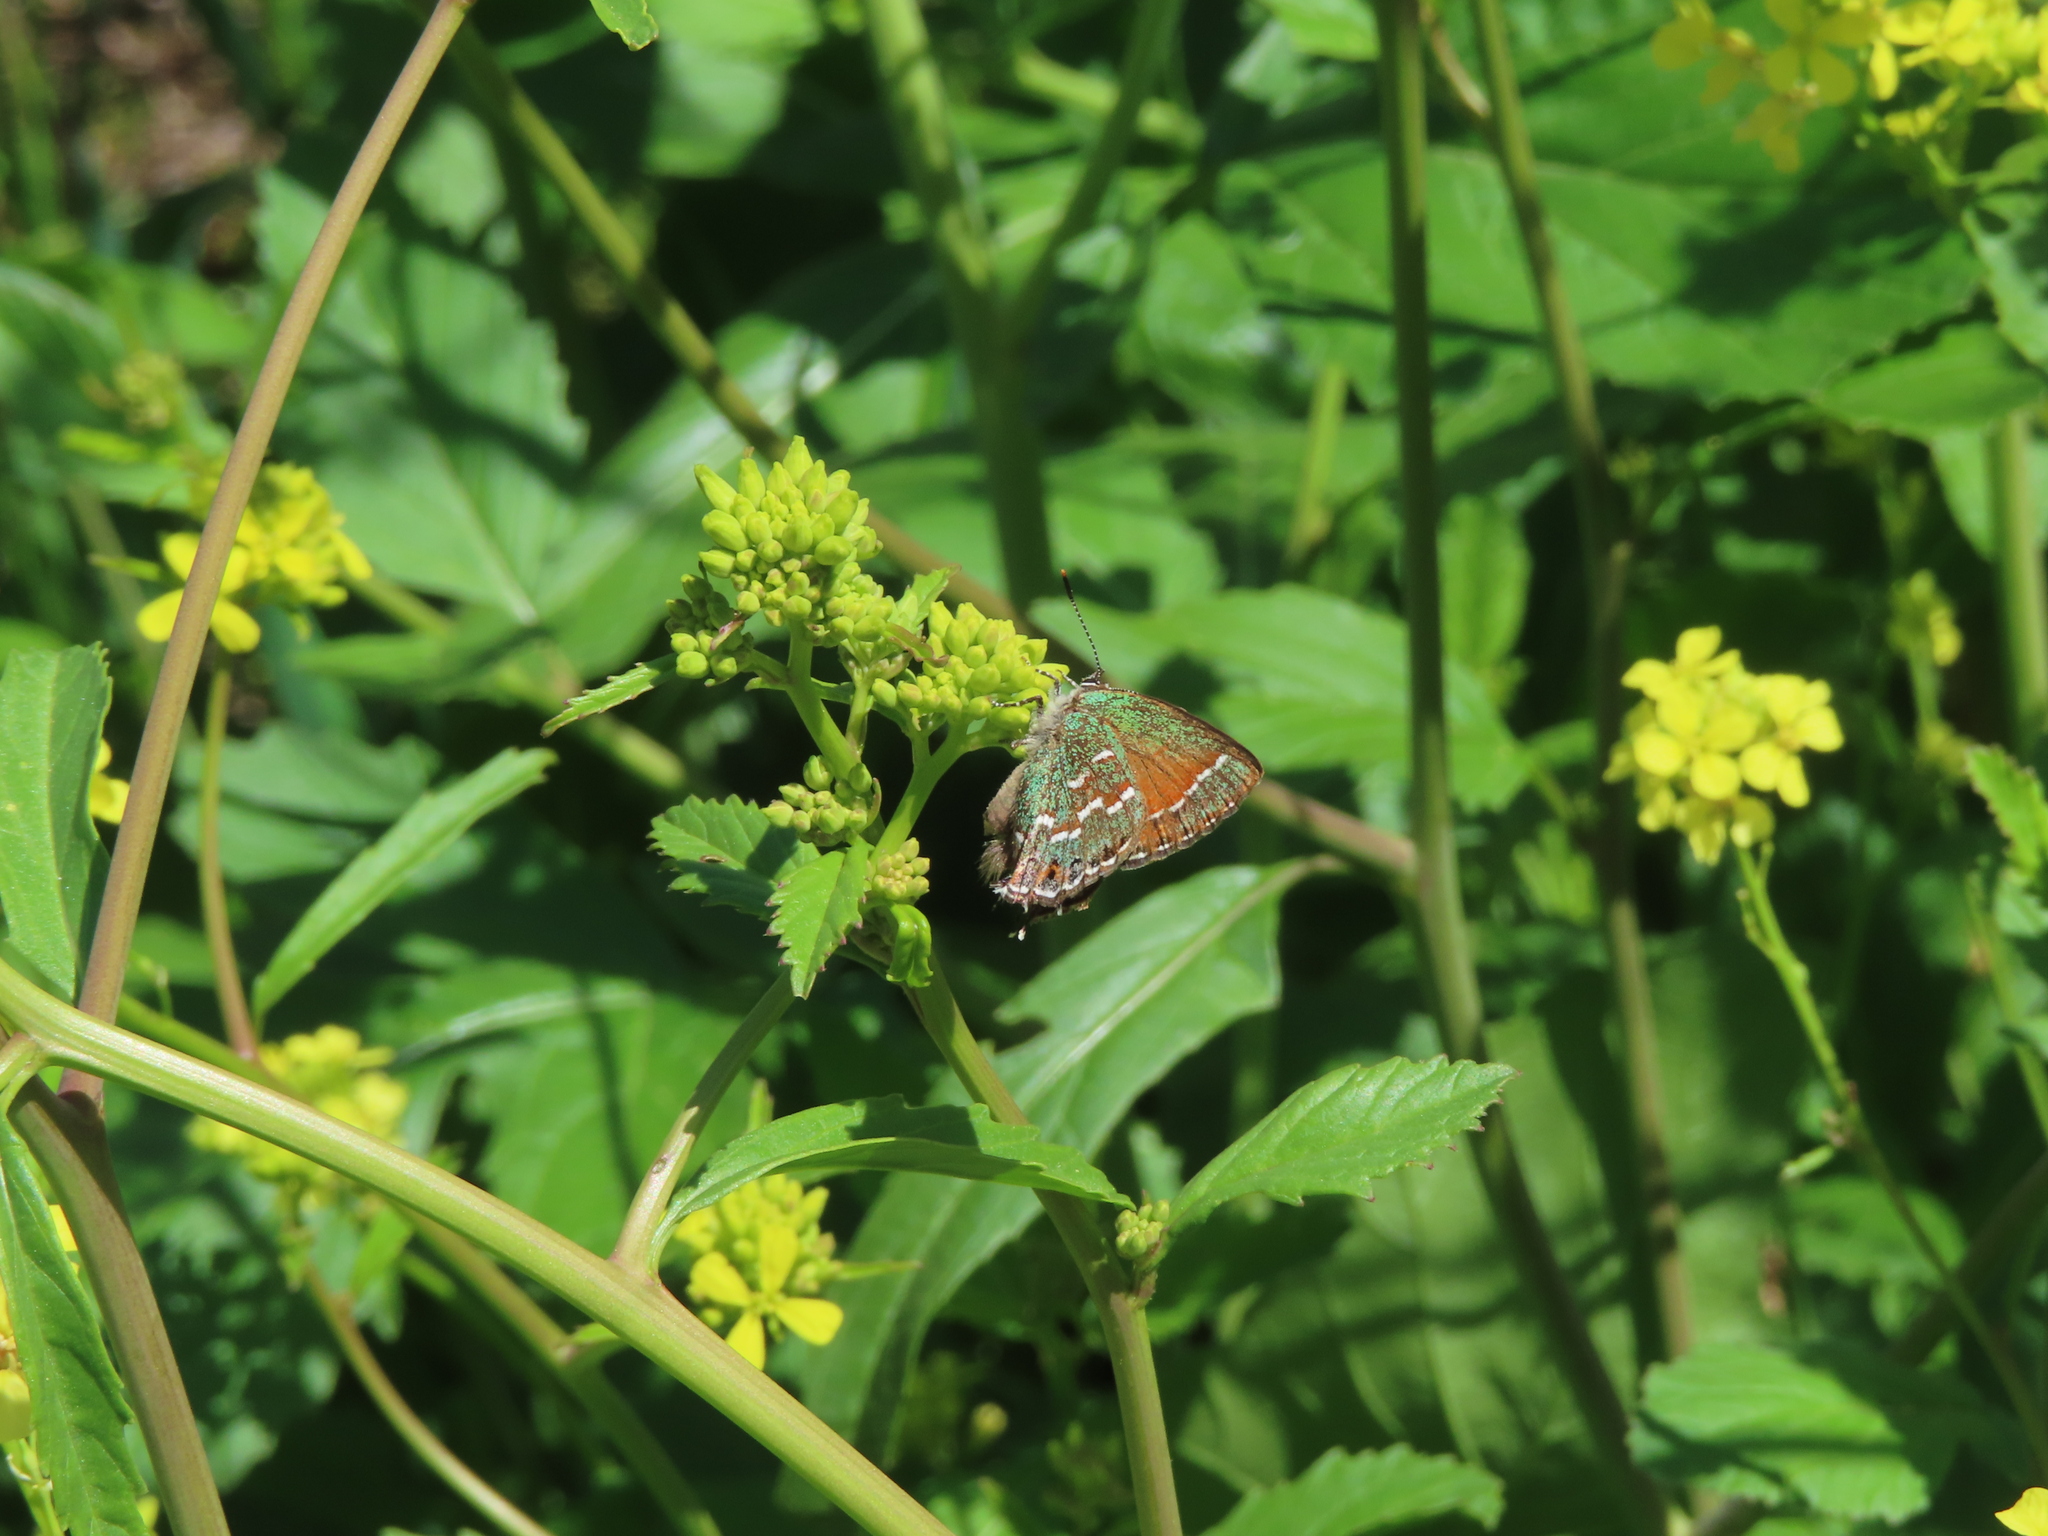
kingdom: Animalia
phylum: Arthropoda
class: Insecta
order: Lepidoptera
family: Lycaenidae
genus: Mitoura
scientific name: Mitoura gryneus
